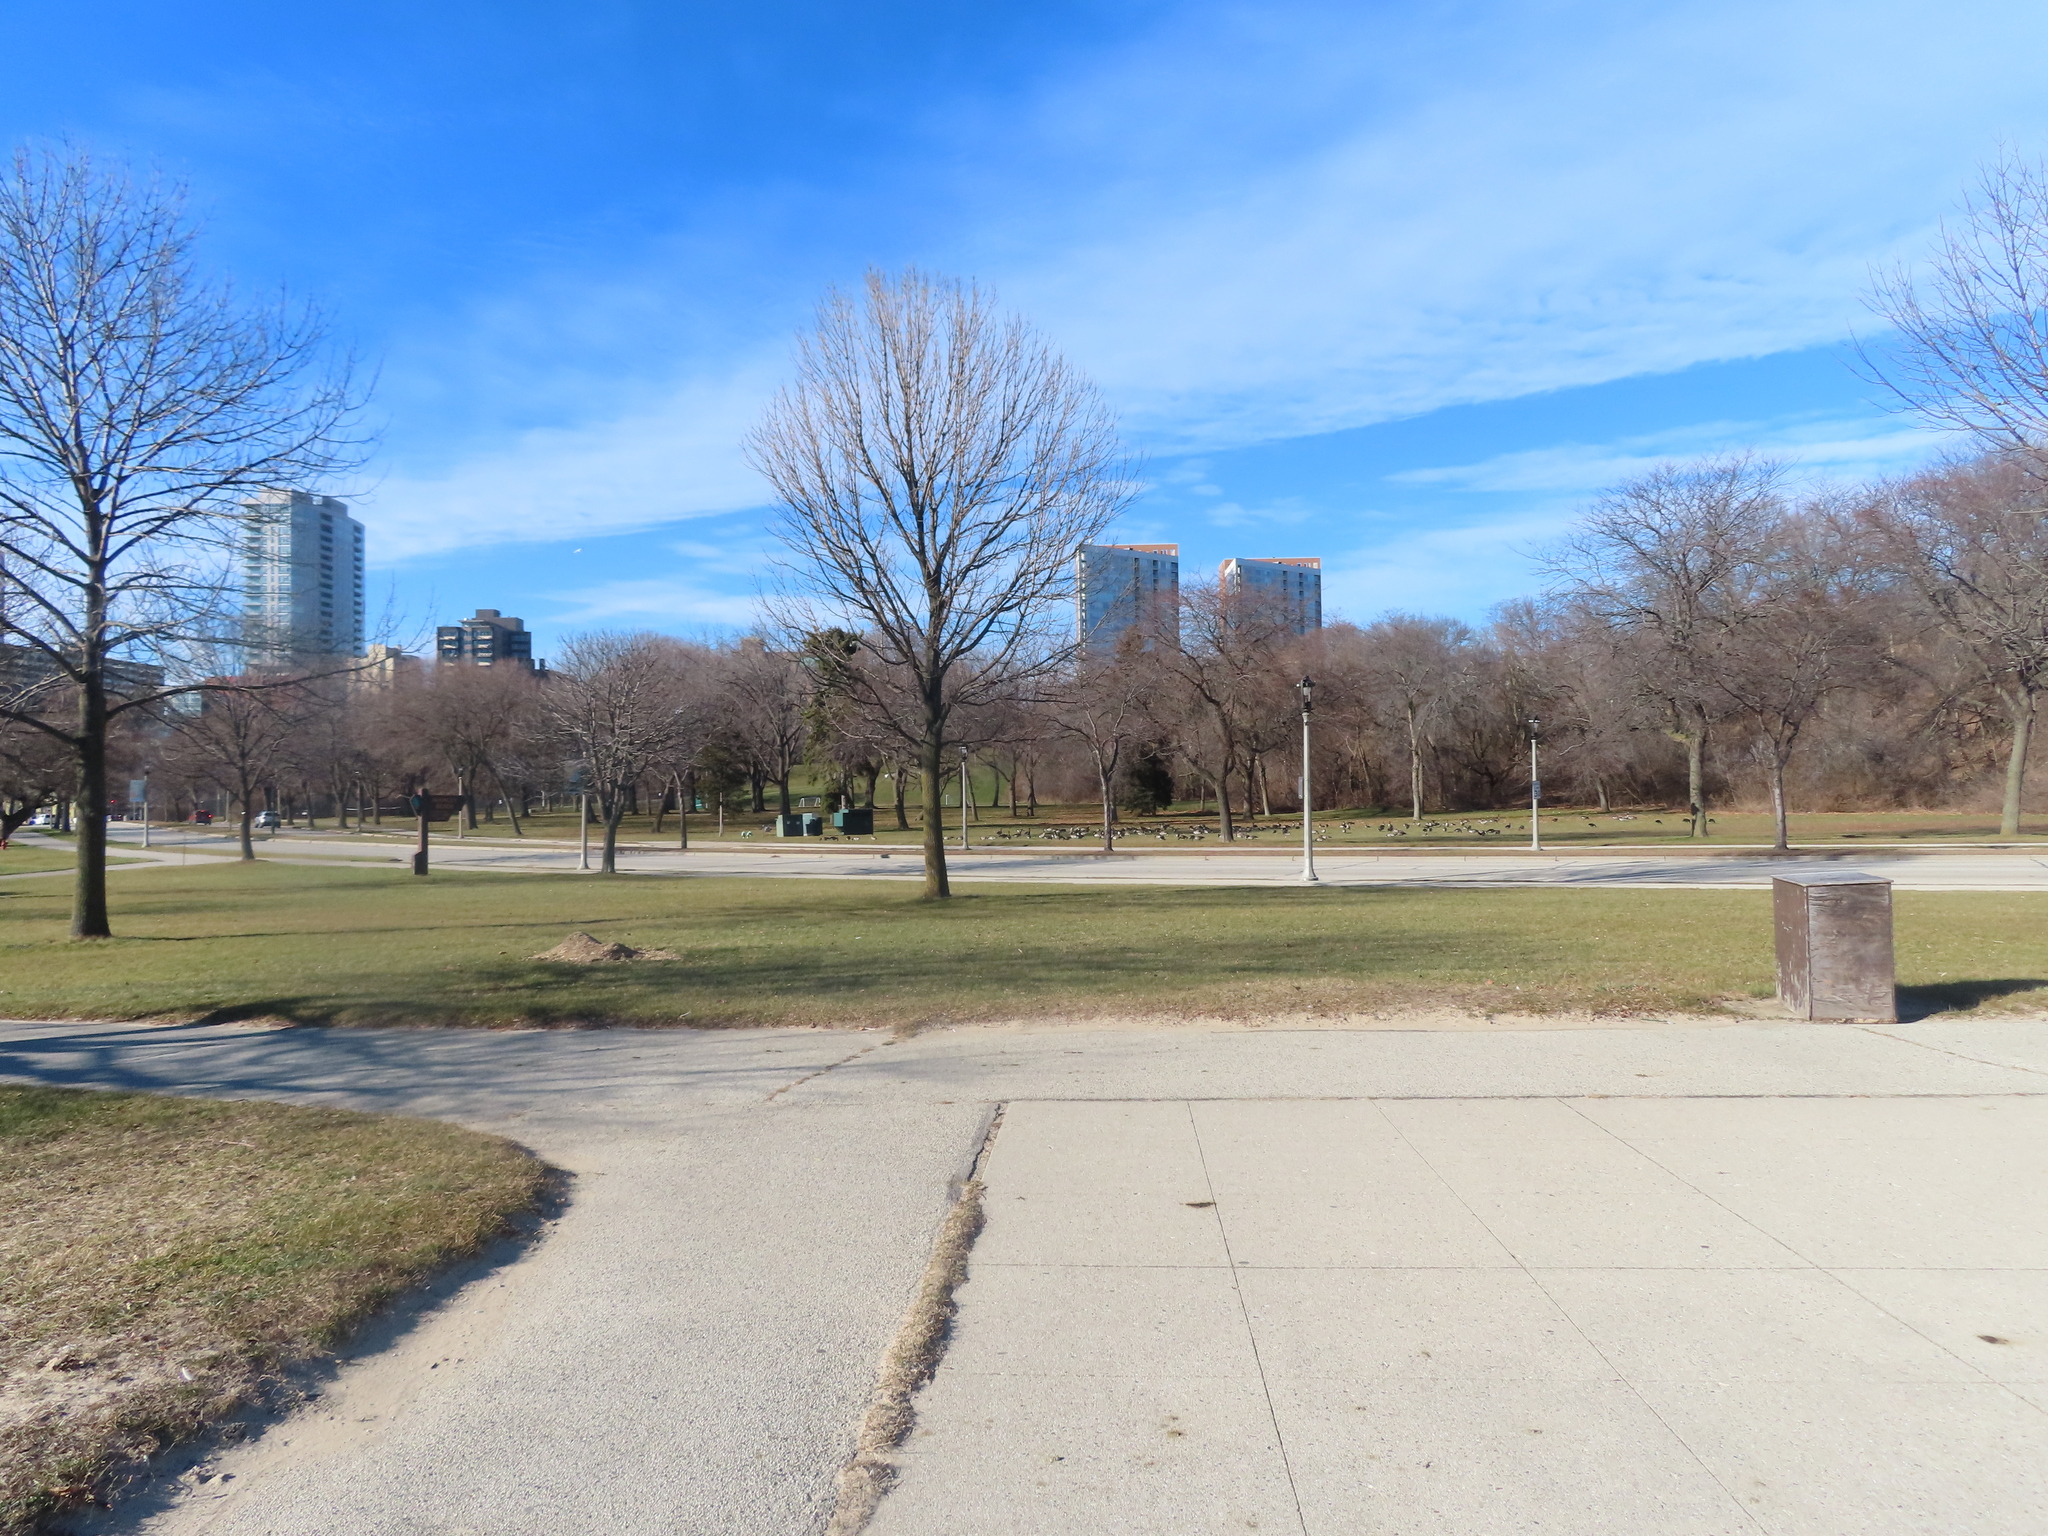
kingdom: Animalia
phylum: Chordata
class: Aves
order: Anseriformes
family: Anatidae
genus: Branta
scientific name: Branta canadensis
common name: Canada goose
